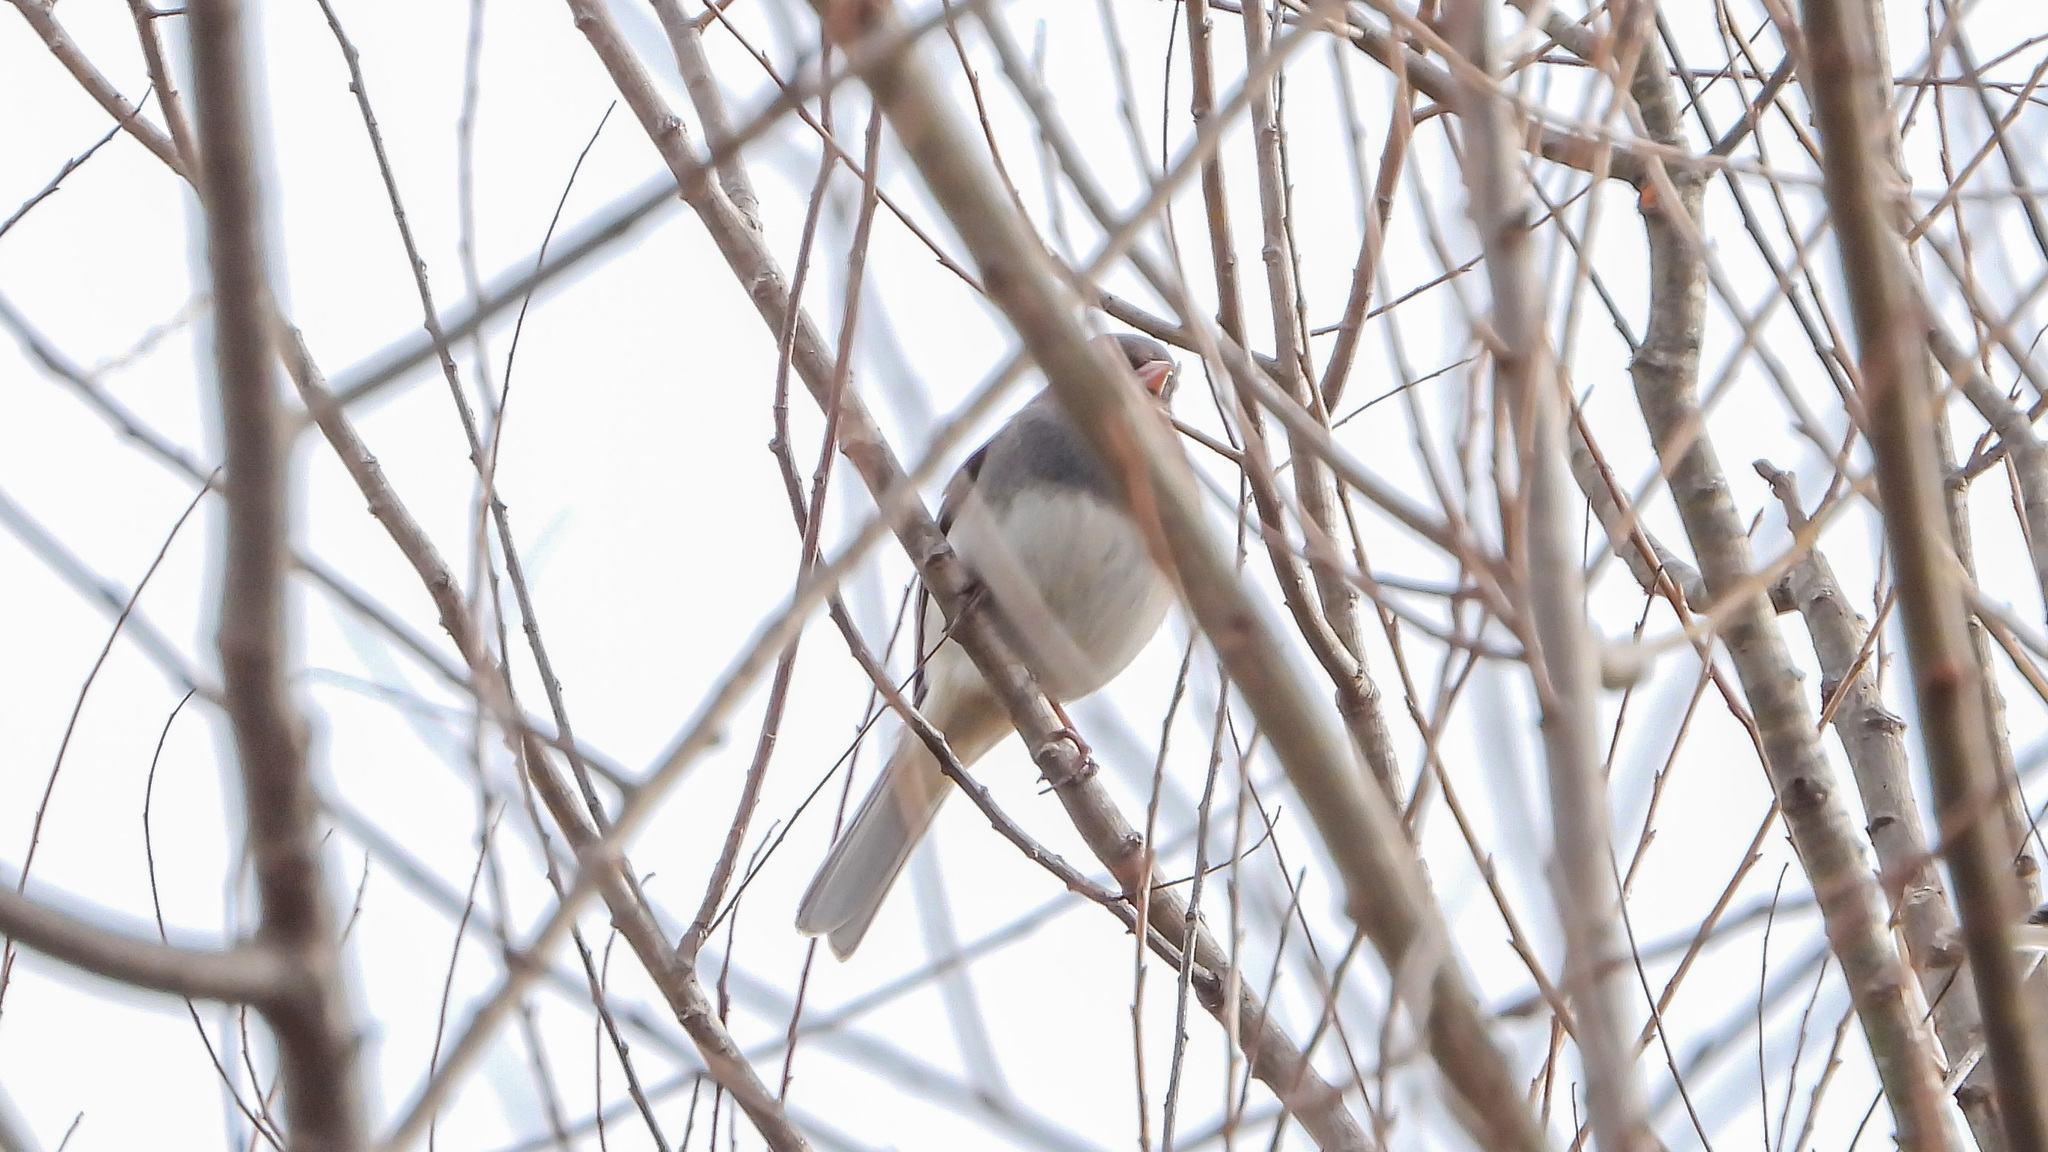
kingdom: Animalia
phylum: Chordata
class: Aves
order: Passeriformes
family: Passerellidae
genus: Junco
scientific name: Junco hyemalis
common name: Dark-eyed junco
